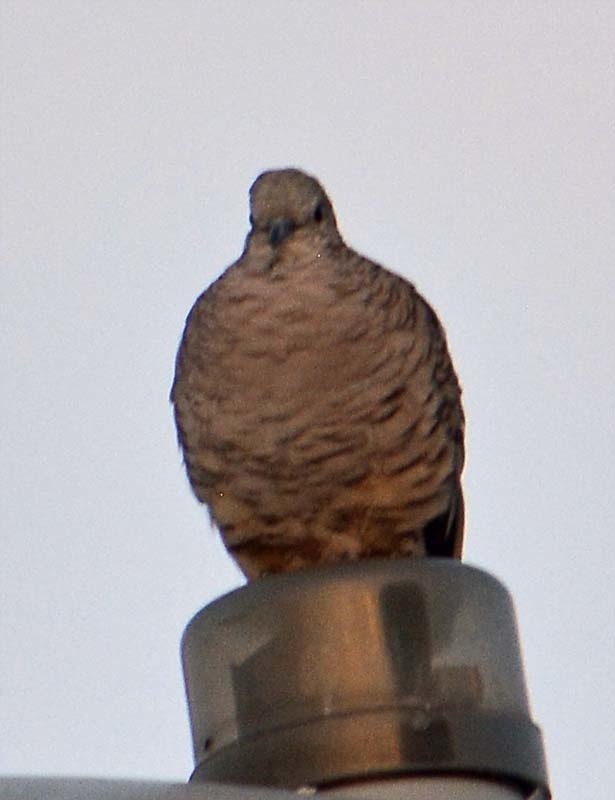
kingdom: Animalia
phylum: Chordata
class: Aves
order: Columbiformes
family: Columbidae
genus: Columbina
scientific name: Columbina inca
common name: Inca dove
